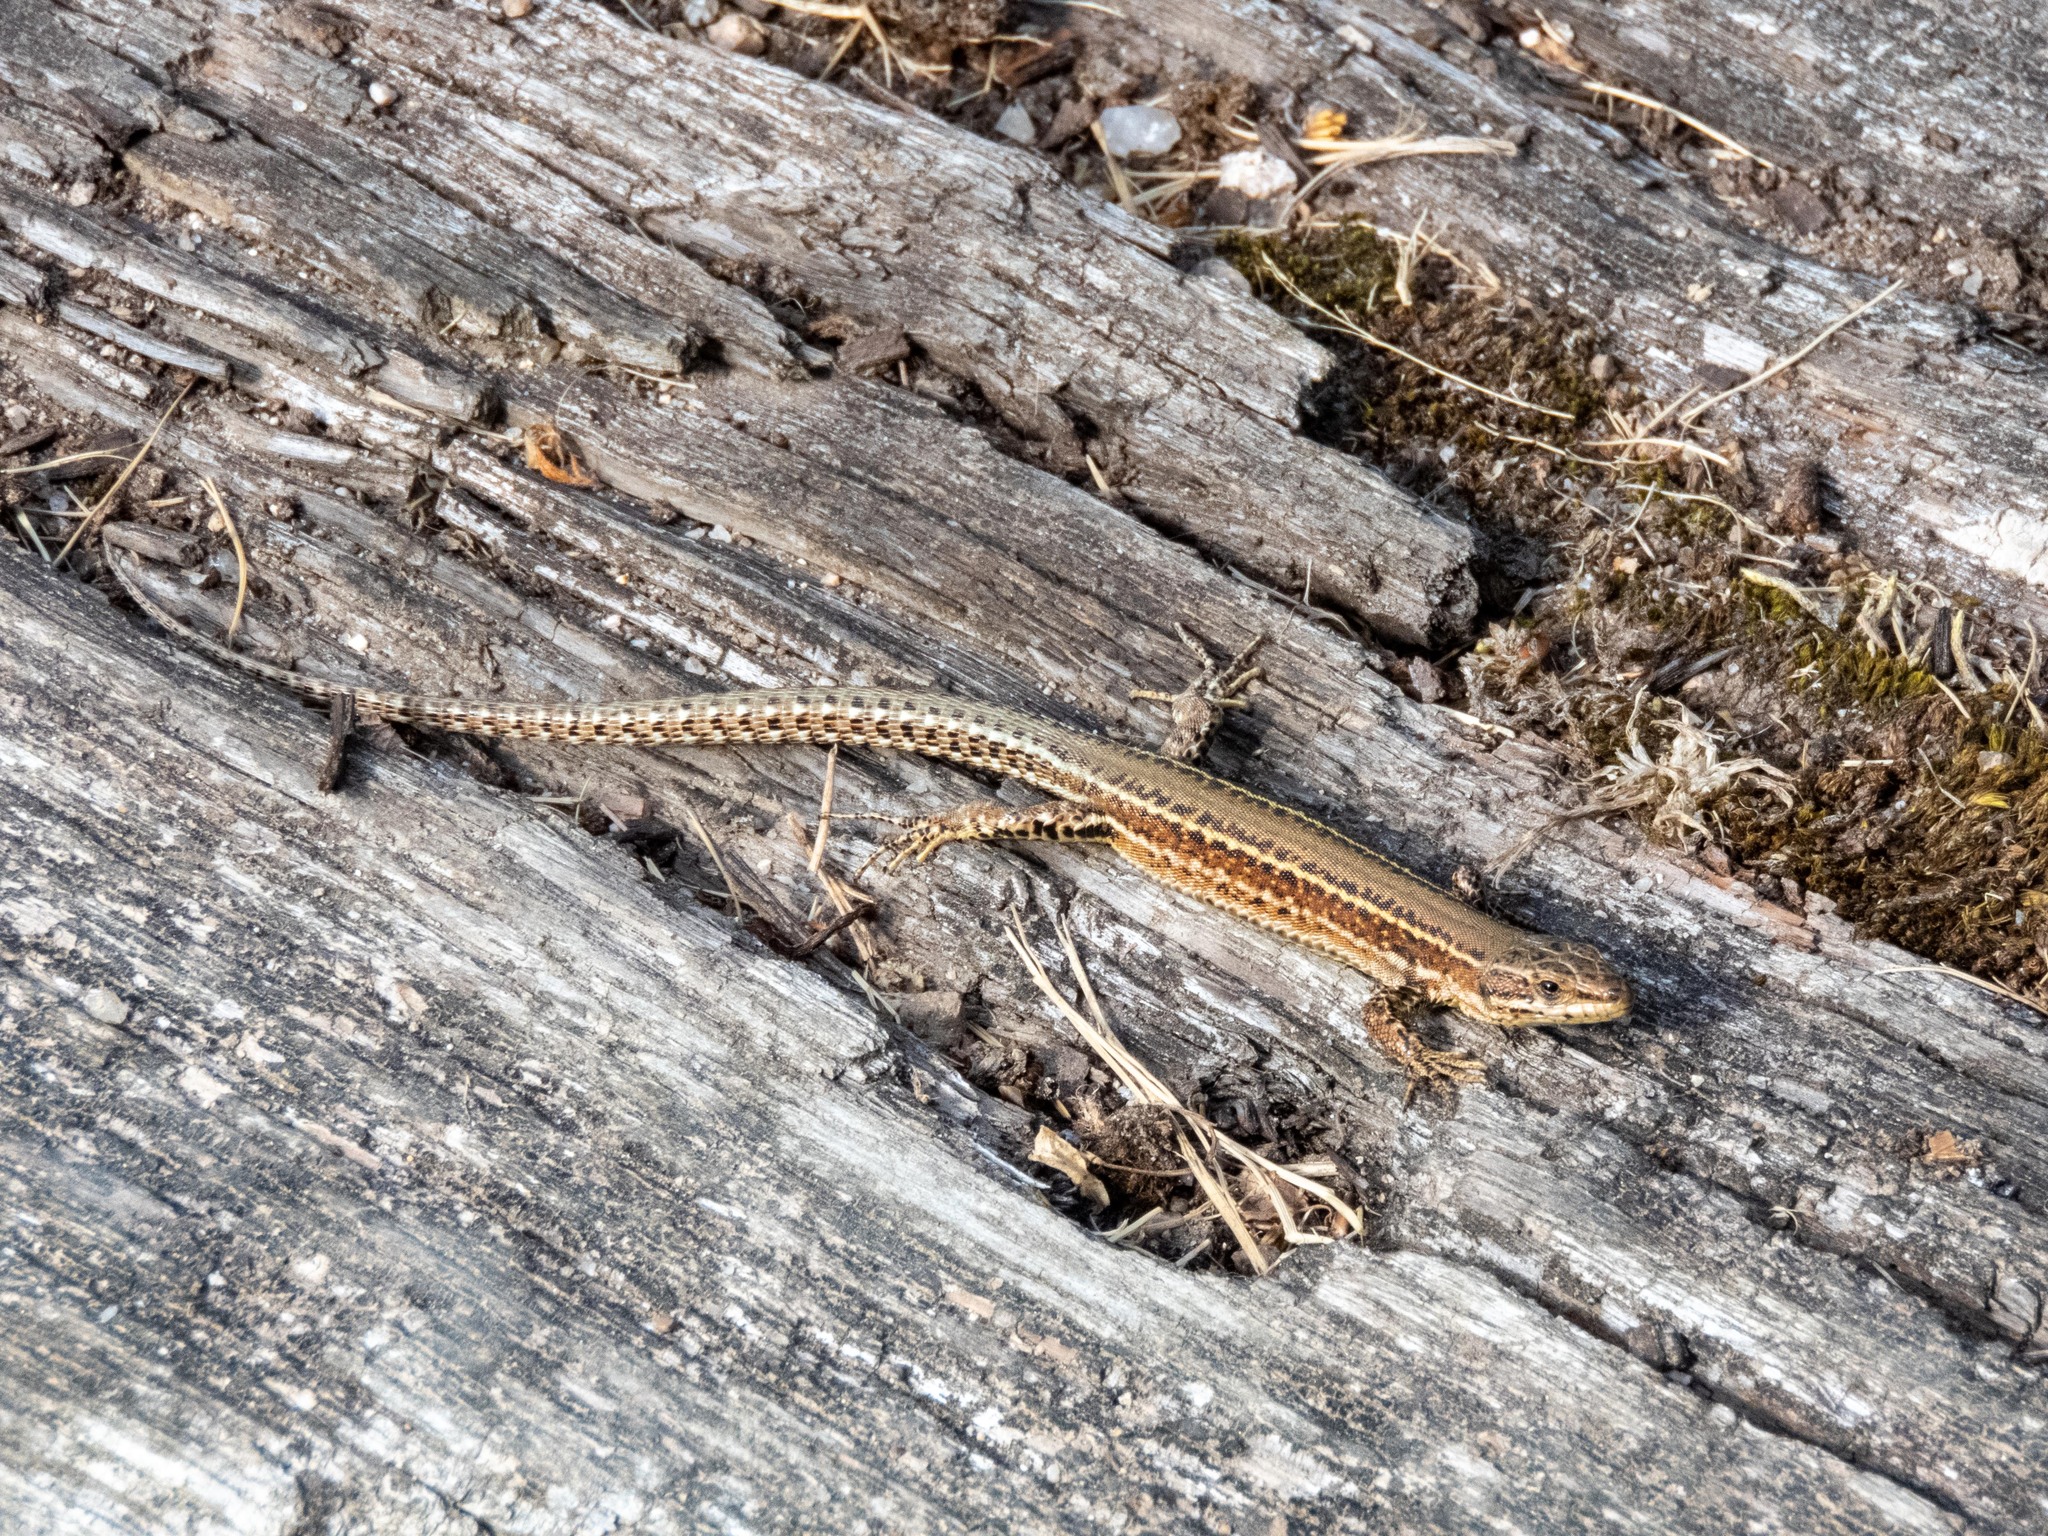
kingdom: Animalia
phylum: Chordata
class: Squamata
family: Lacertidae
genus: Podarcis
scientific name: Podarcis bocagei
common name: Bocage's wall lizard
